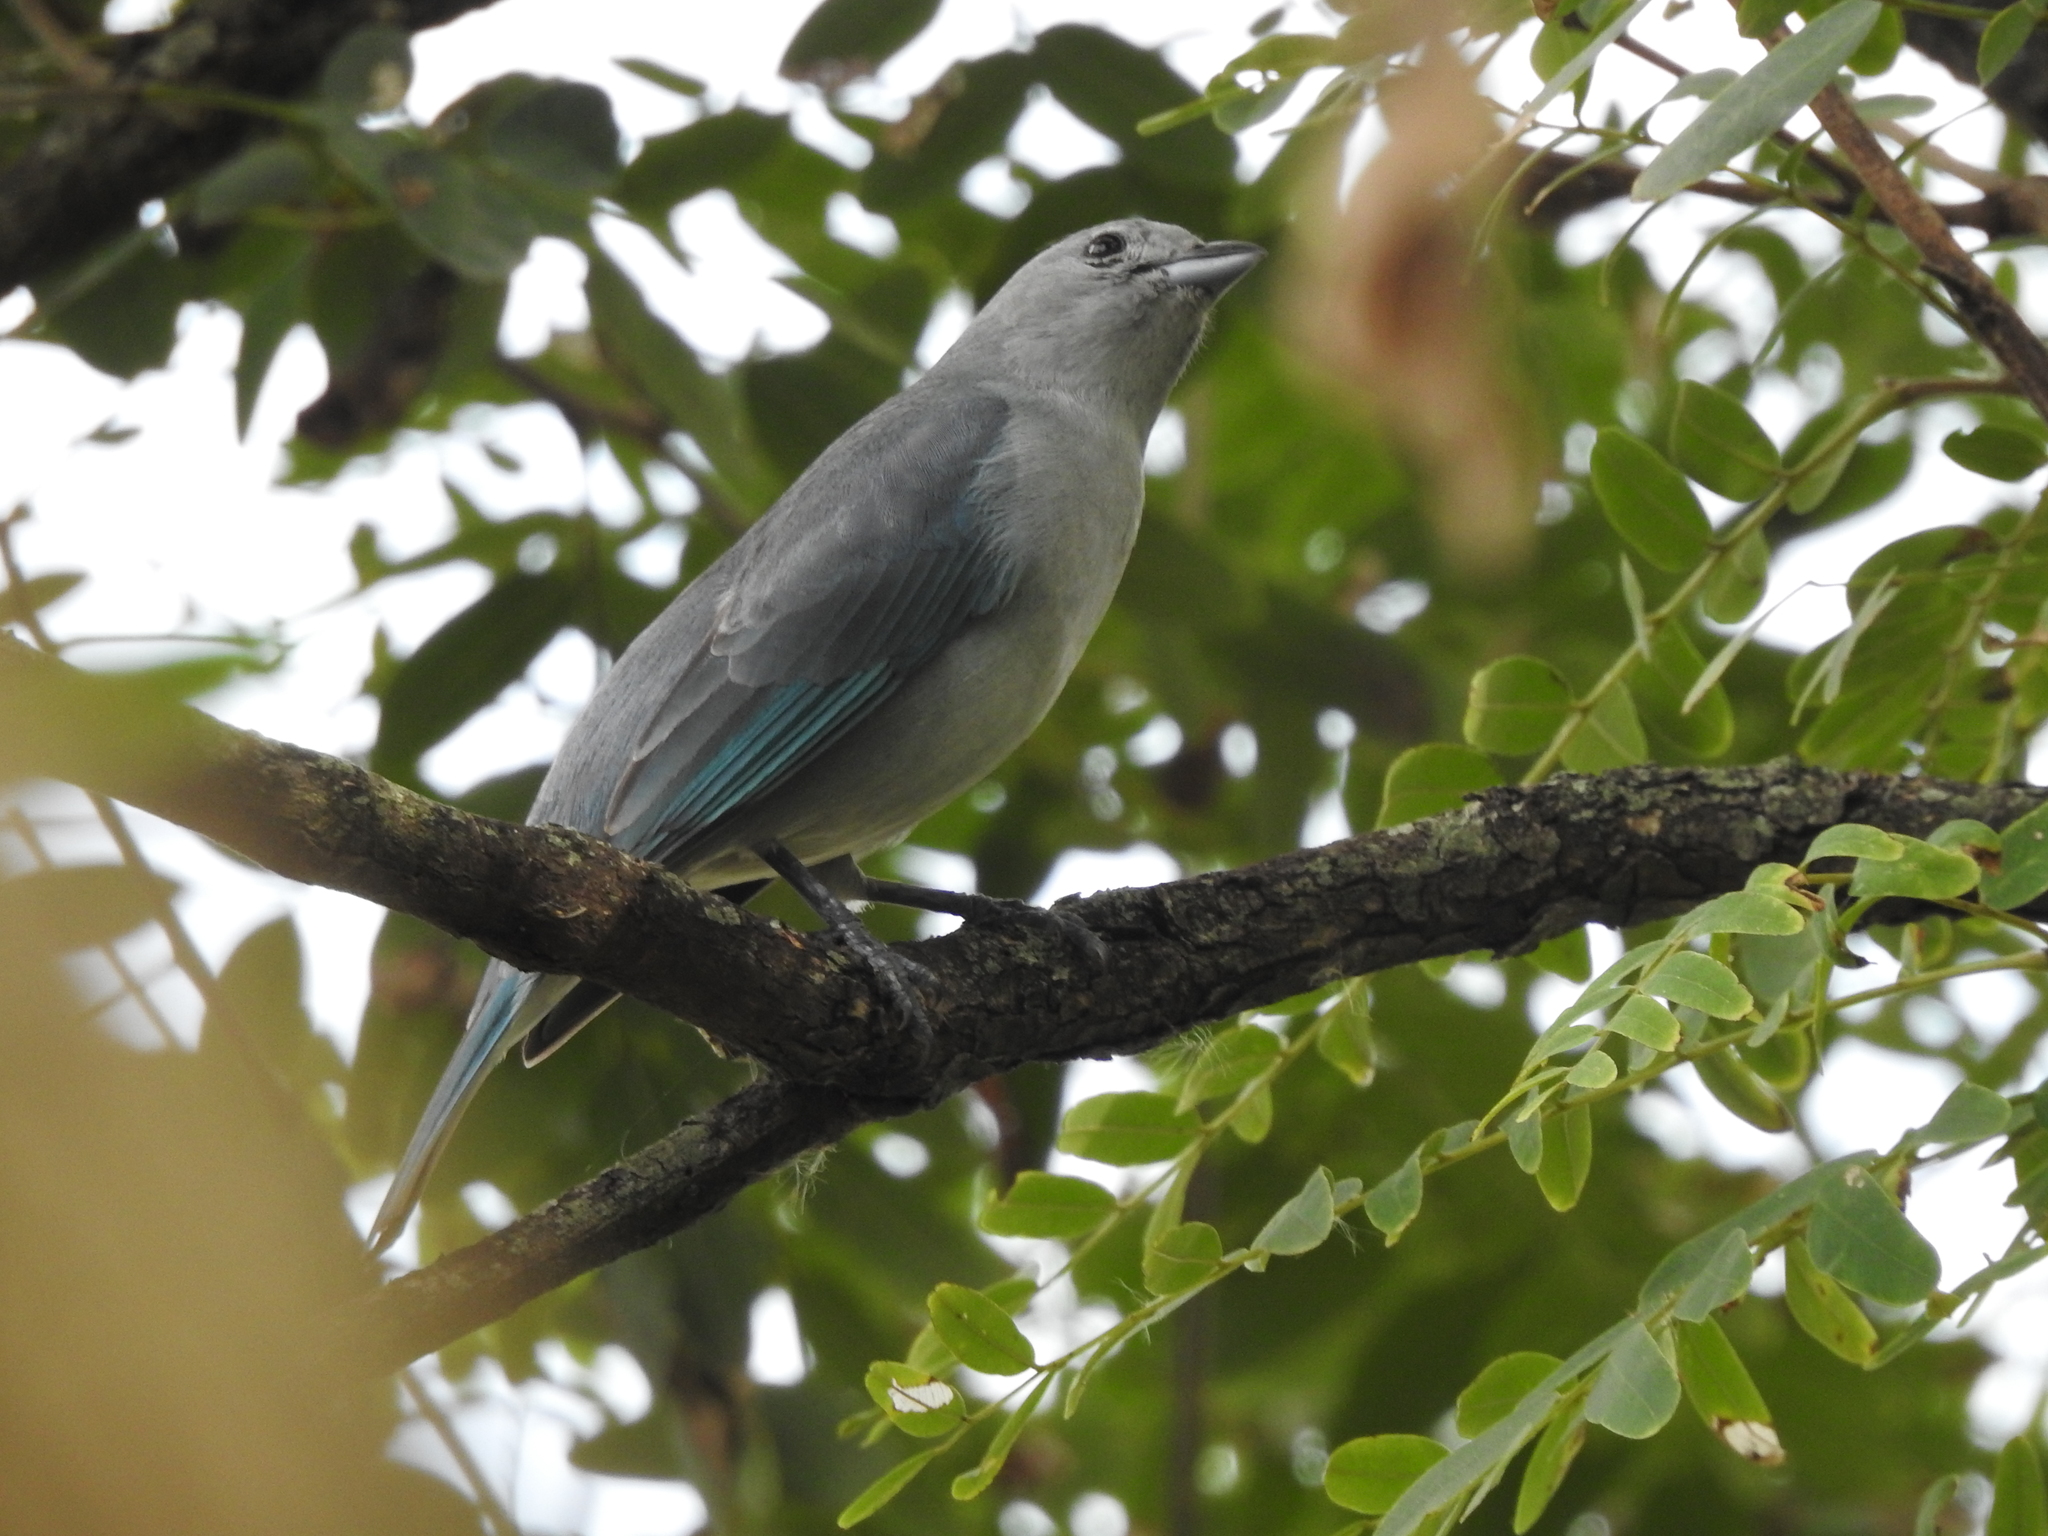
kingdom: Animalia
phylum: Chordata
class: Aves
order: Passeriformes
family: Thraupidae
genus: Thraupis
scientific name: Thraupis sayaca
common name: Sayaca tanager
